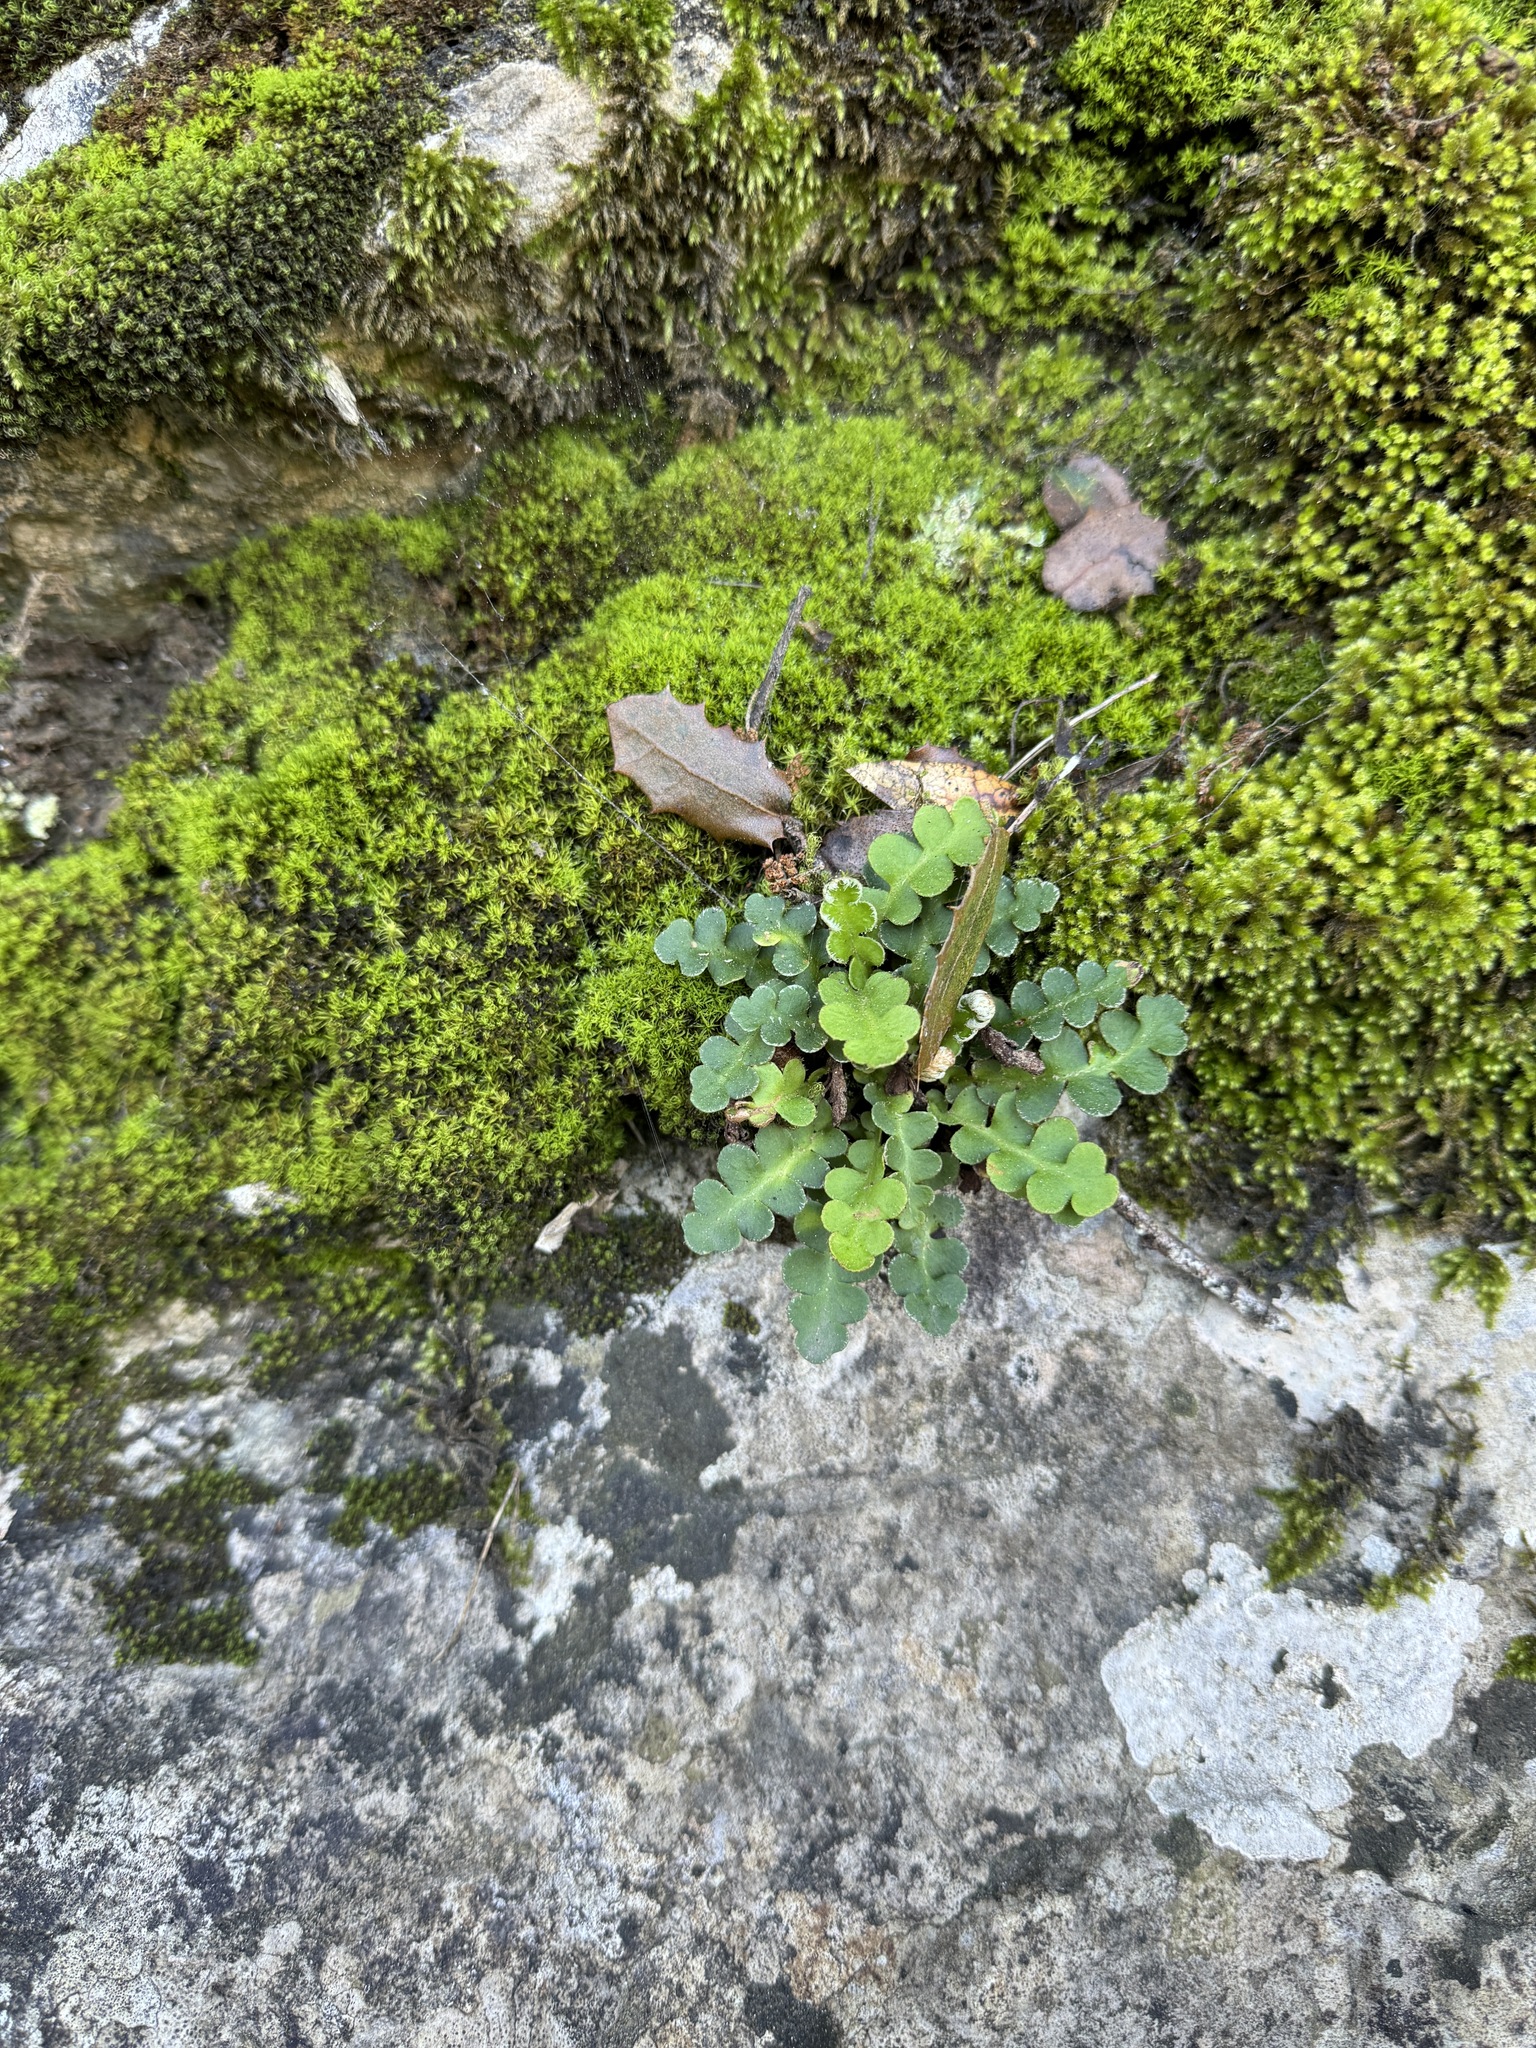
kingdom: Plantae
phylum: Tracheophyta
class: Polypodiopsida
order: Polypodiales
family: Aspleniaceae
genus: Asplenium
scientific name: Asplenium ceterach
